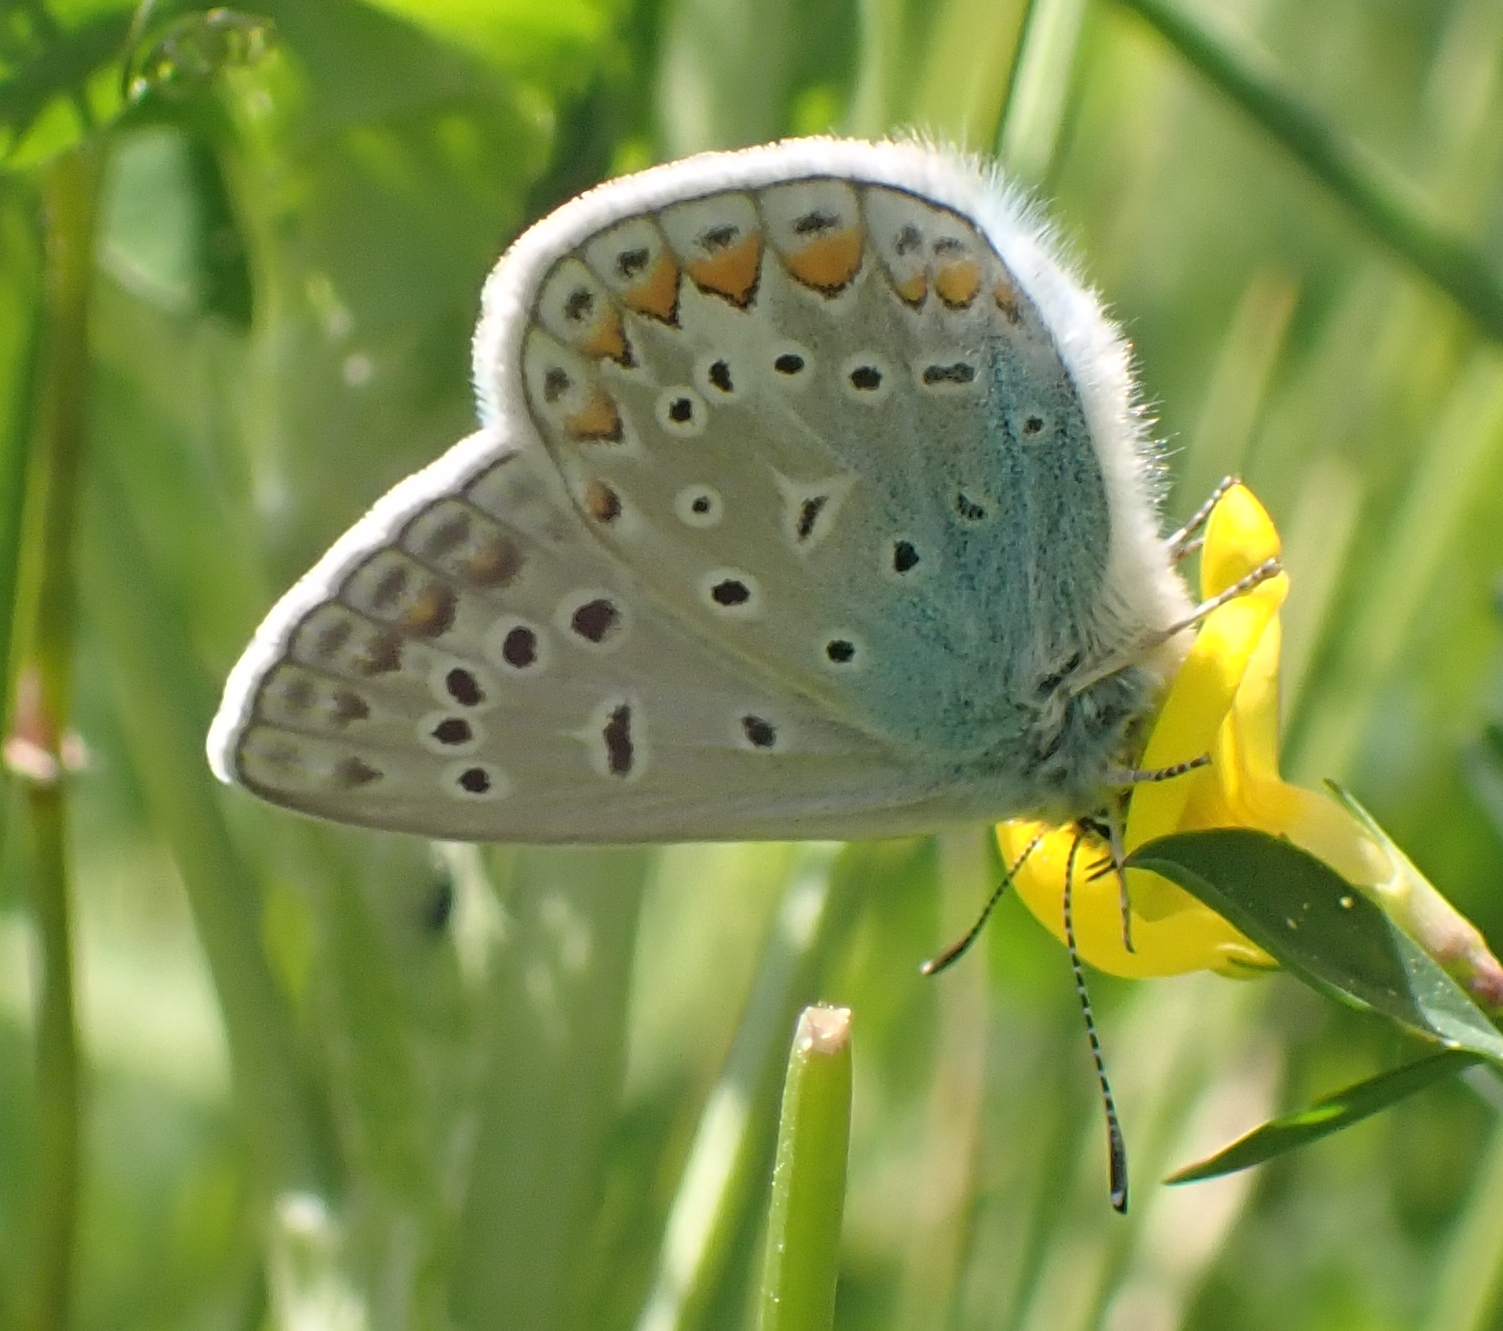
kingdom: Animalia
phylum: Arthropoda
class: Insecta
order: Lepidoptera
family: Lycaenidae
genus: Polyommatus
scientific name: Polyommatus icarus
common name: Common blue
